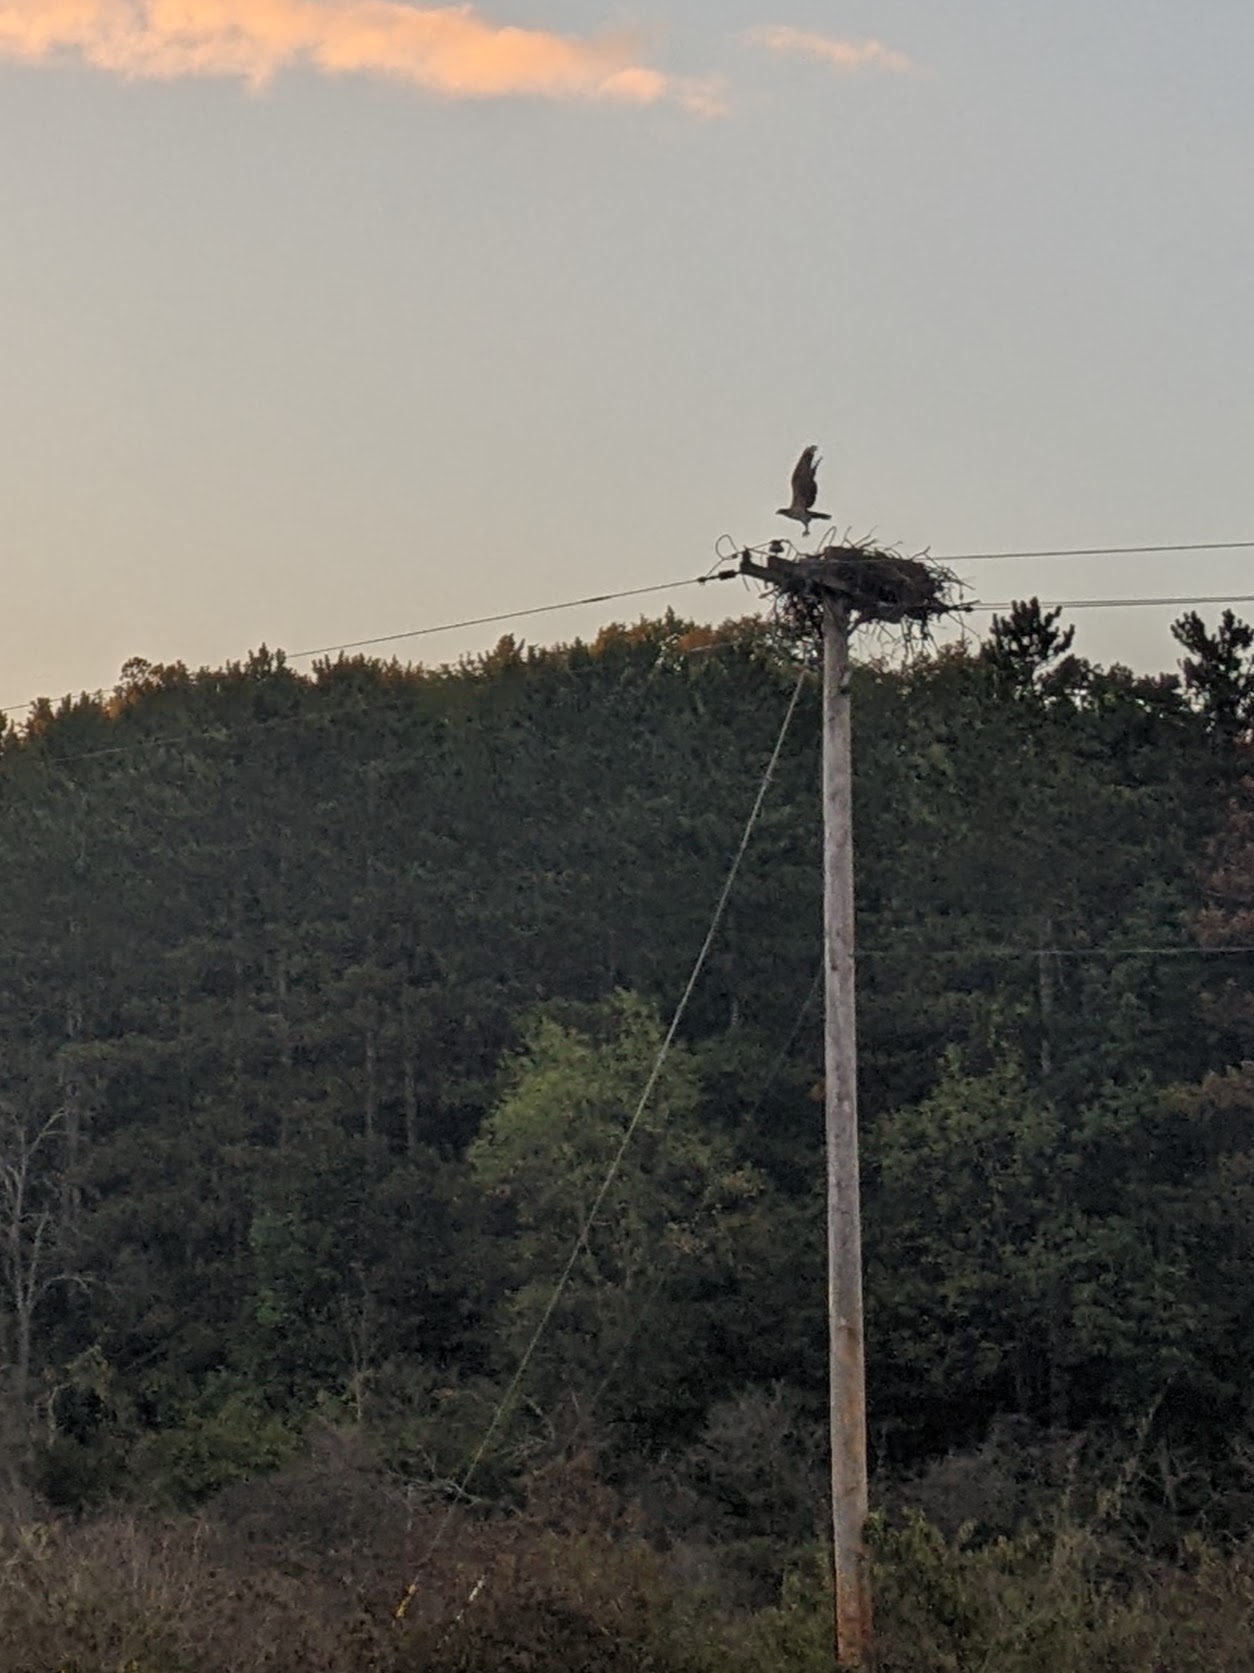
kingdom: Animalia
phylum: Chordata
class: Aves
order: Accipitriformes
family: Pandionidae
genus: Pandion
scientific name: Pandion haliaetus
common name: Osprey
